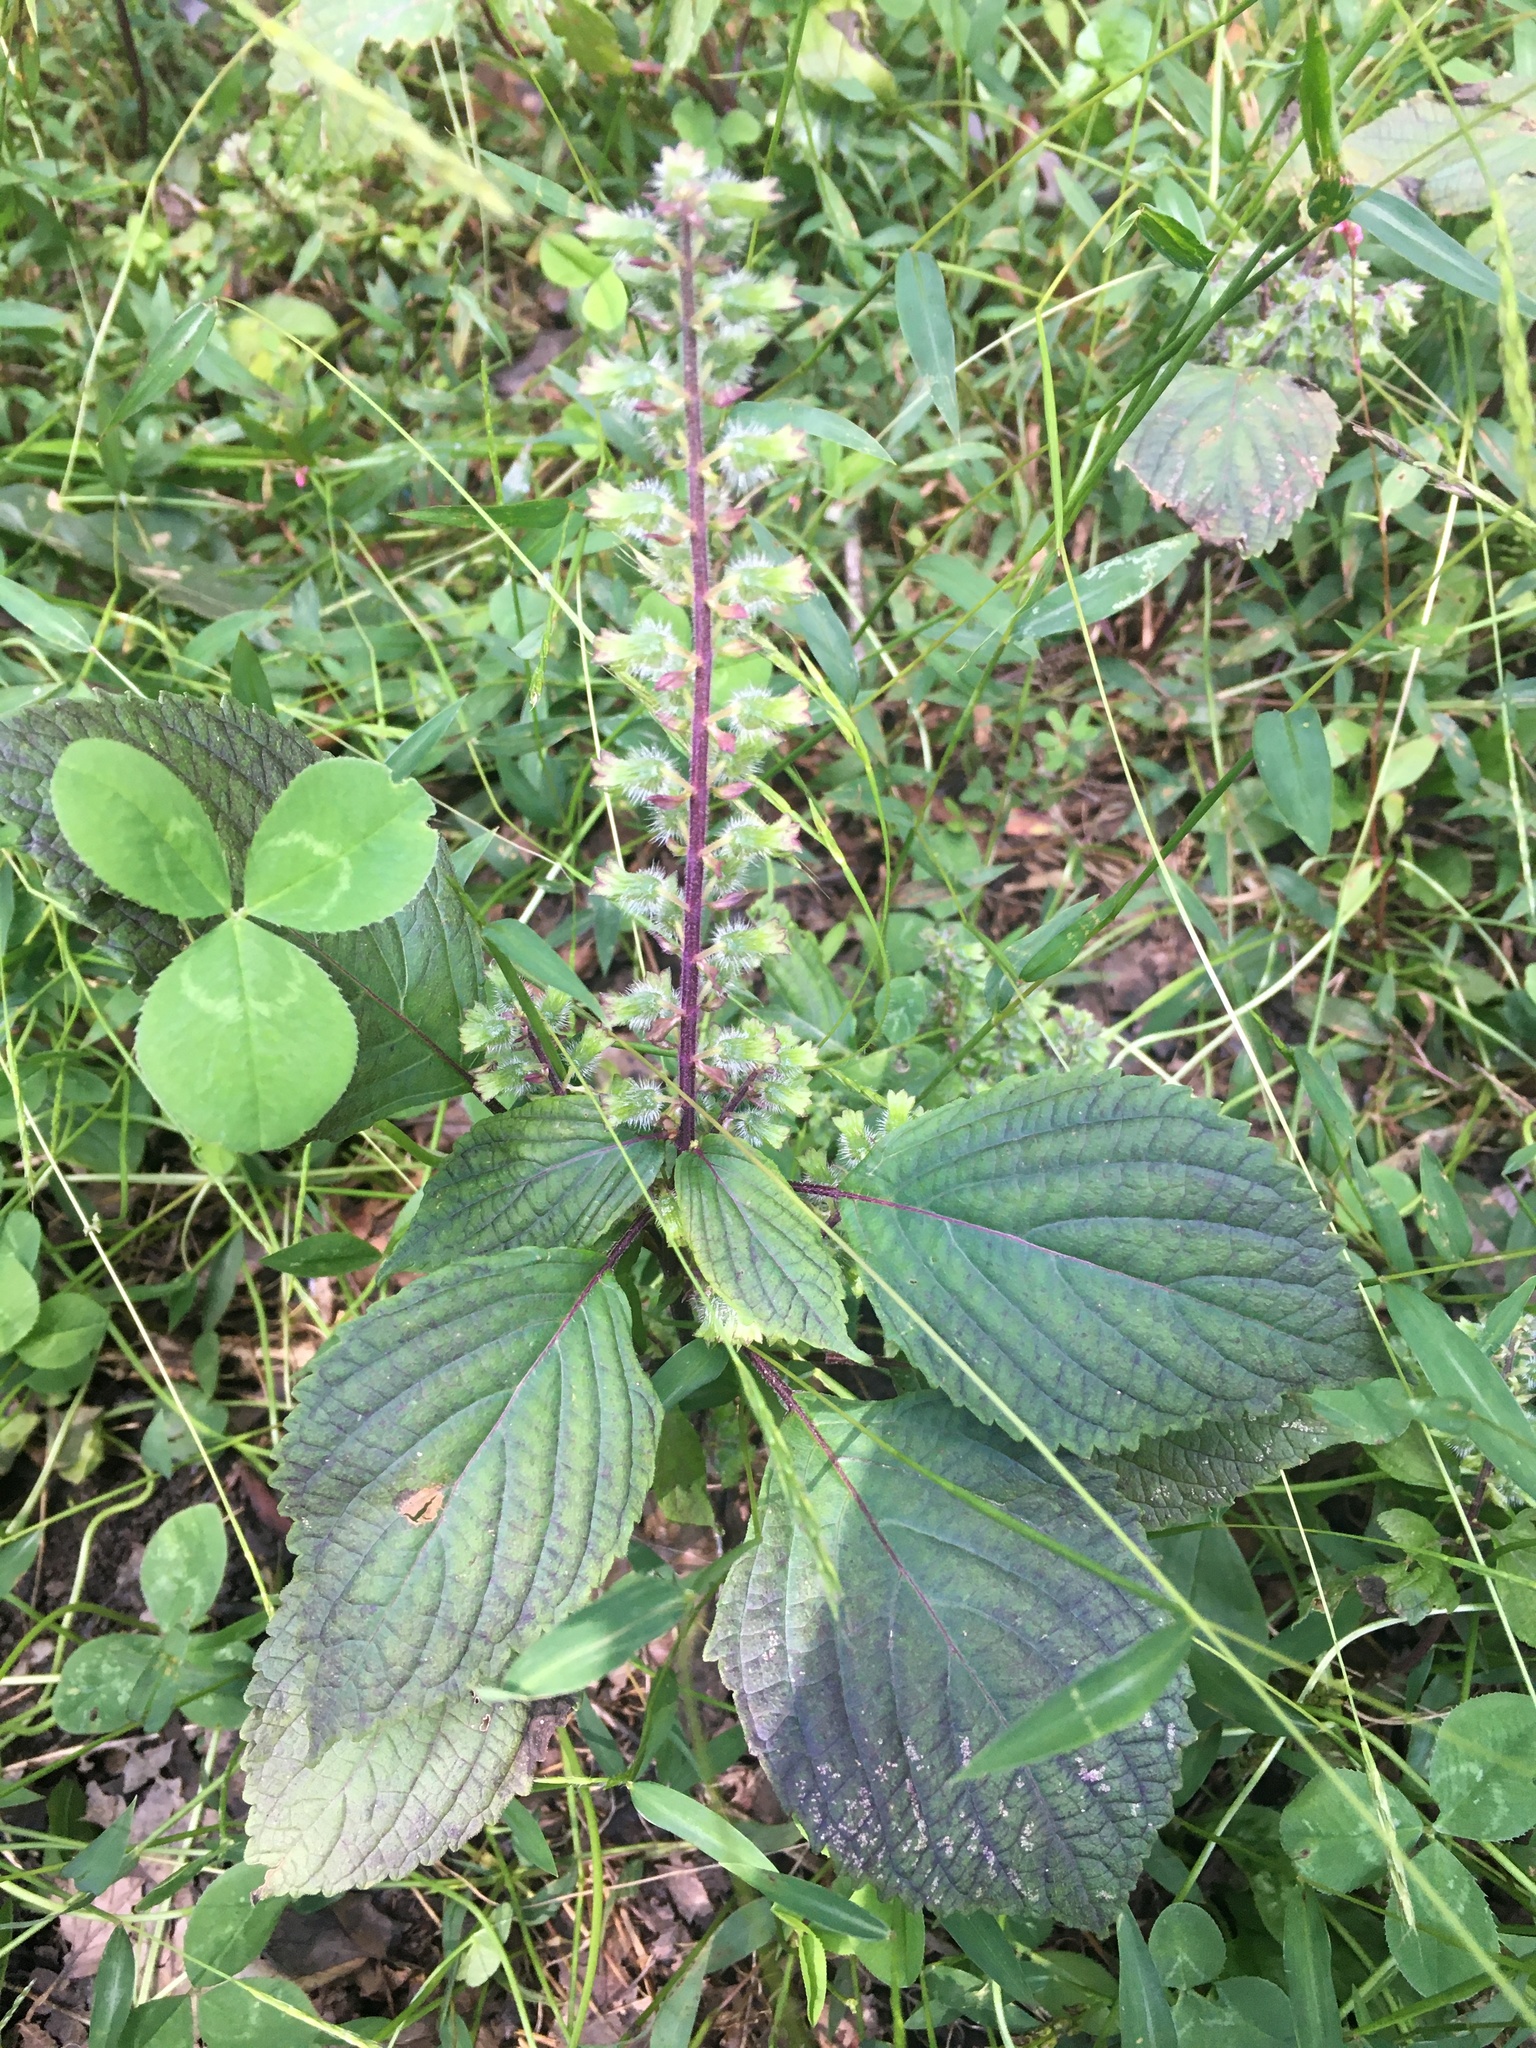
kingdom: Plantae
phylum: Tracheophyta
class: Magnoliopsida
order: Lamiales
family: Lamiaceae
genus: Perilla
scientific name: Perilla frutescens
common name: Perilla
